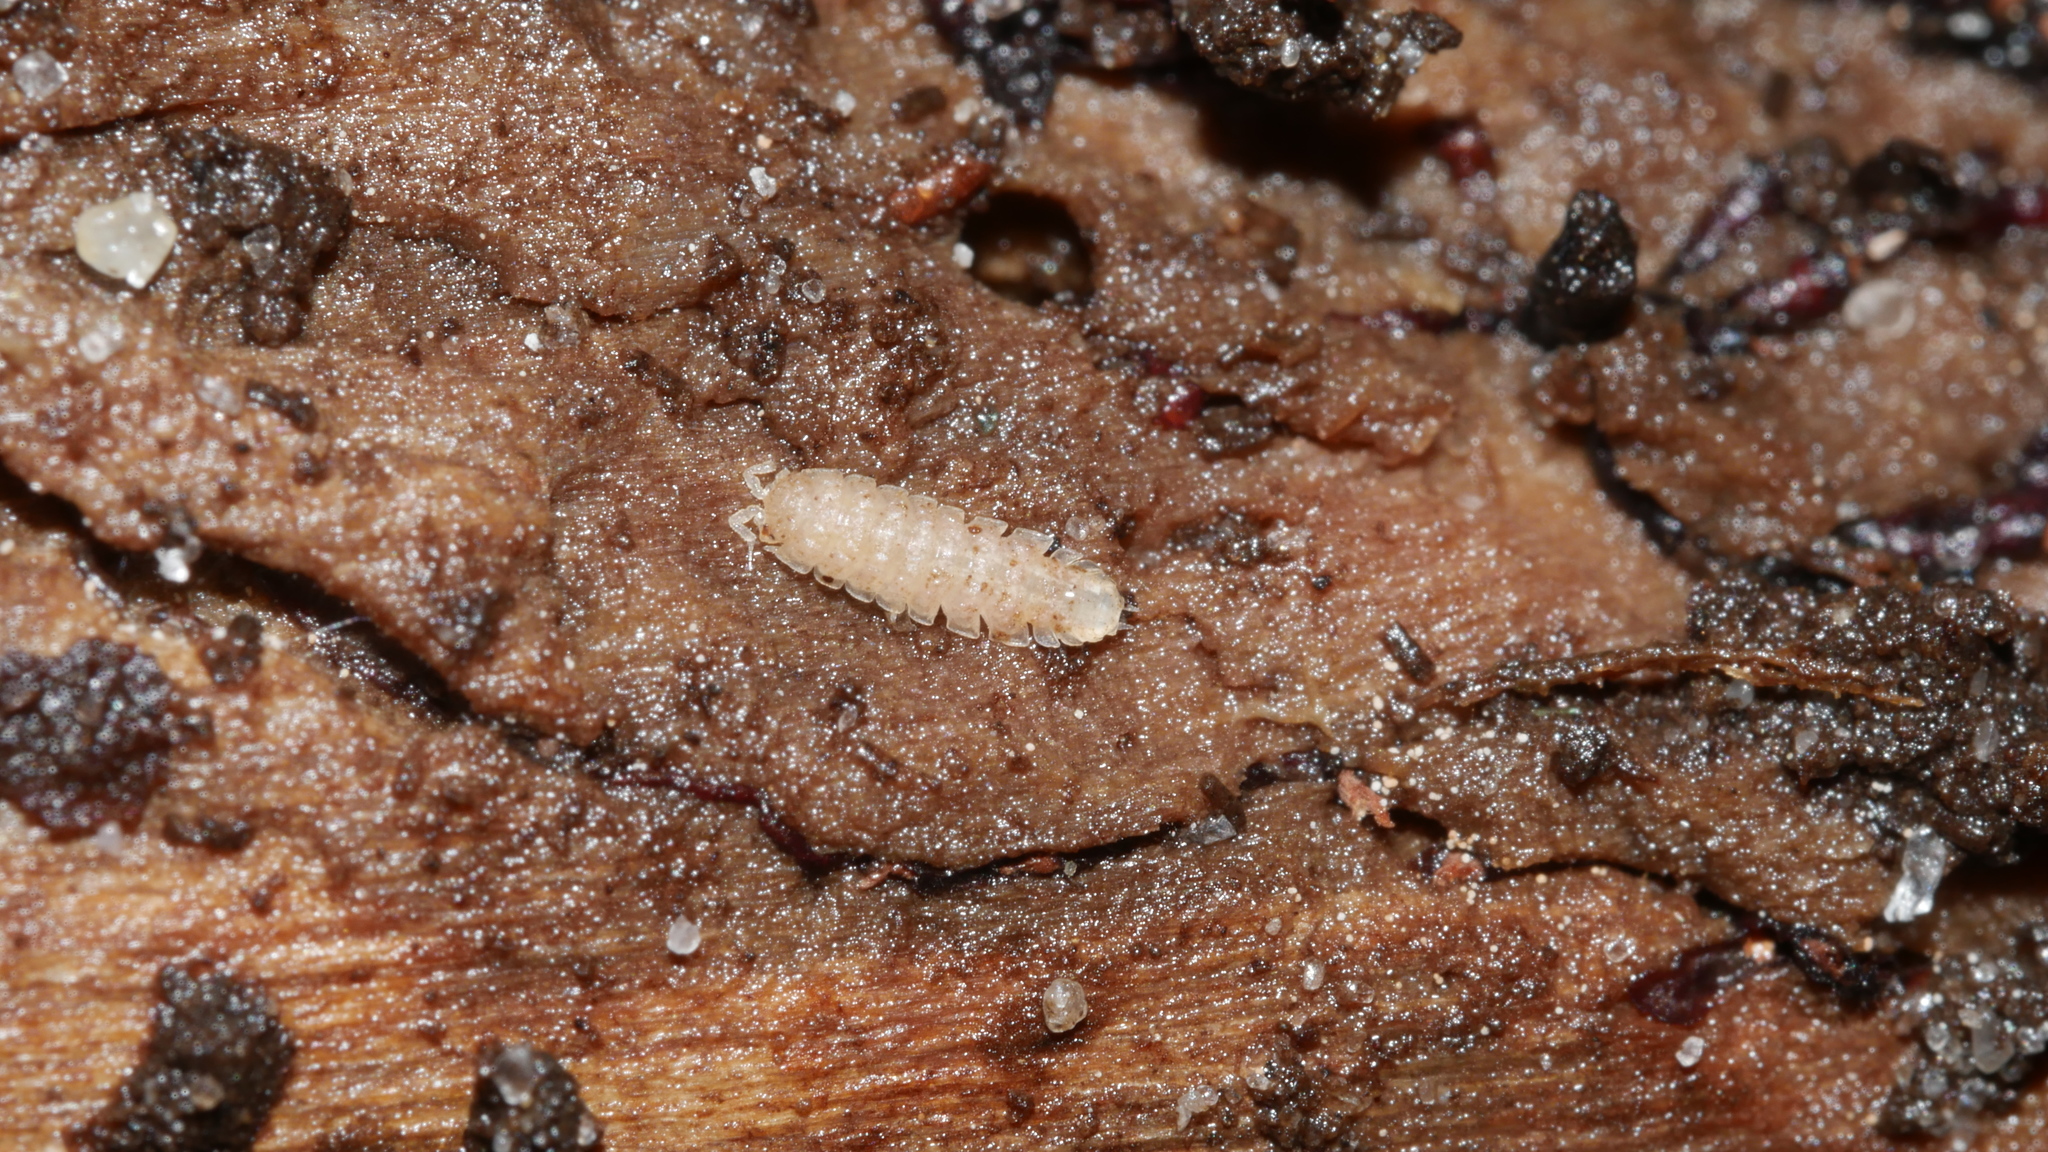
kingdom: Animalia
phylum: Arthropoda
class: Malacostraca
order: Isopoda
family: Trichoniscidae
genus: Haplophthalmus
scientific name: Haplophthalmus danicus
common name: Pillbug
